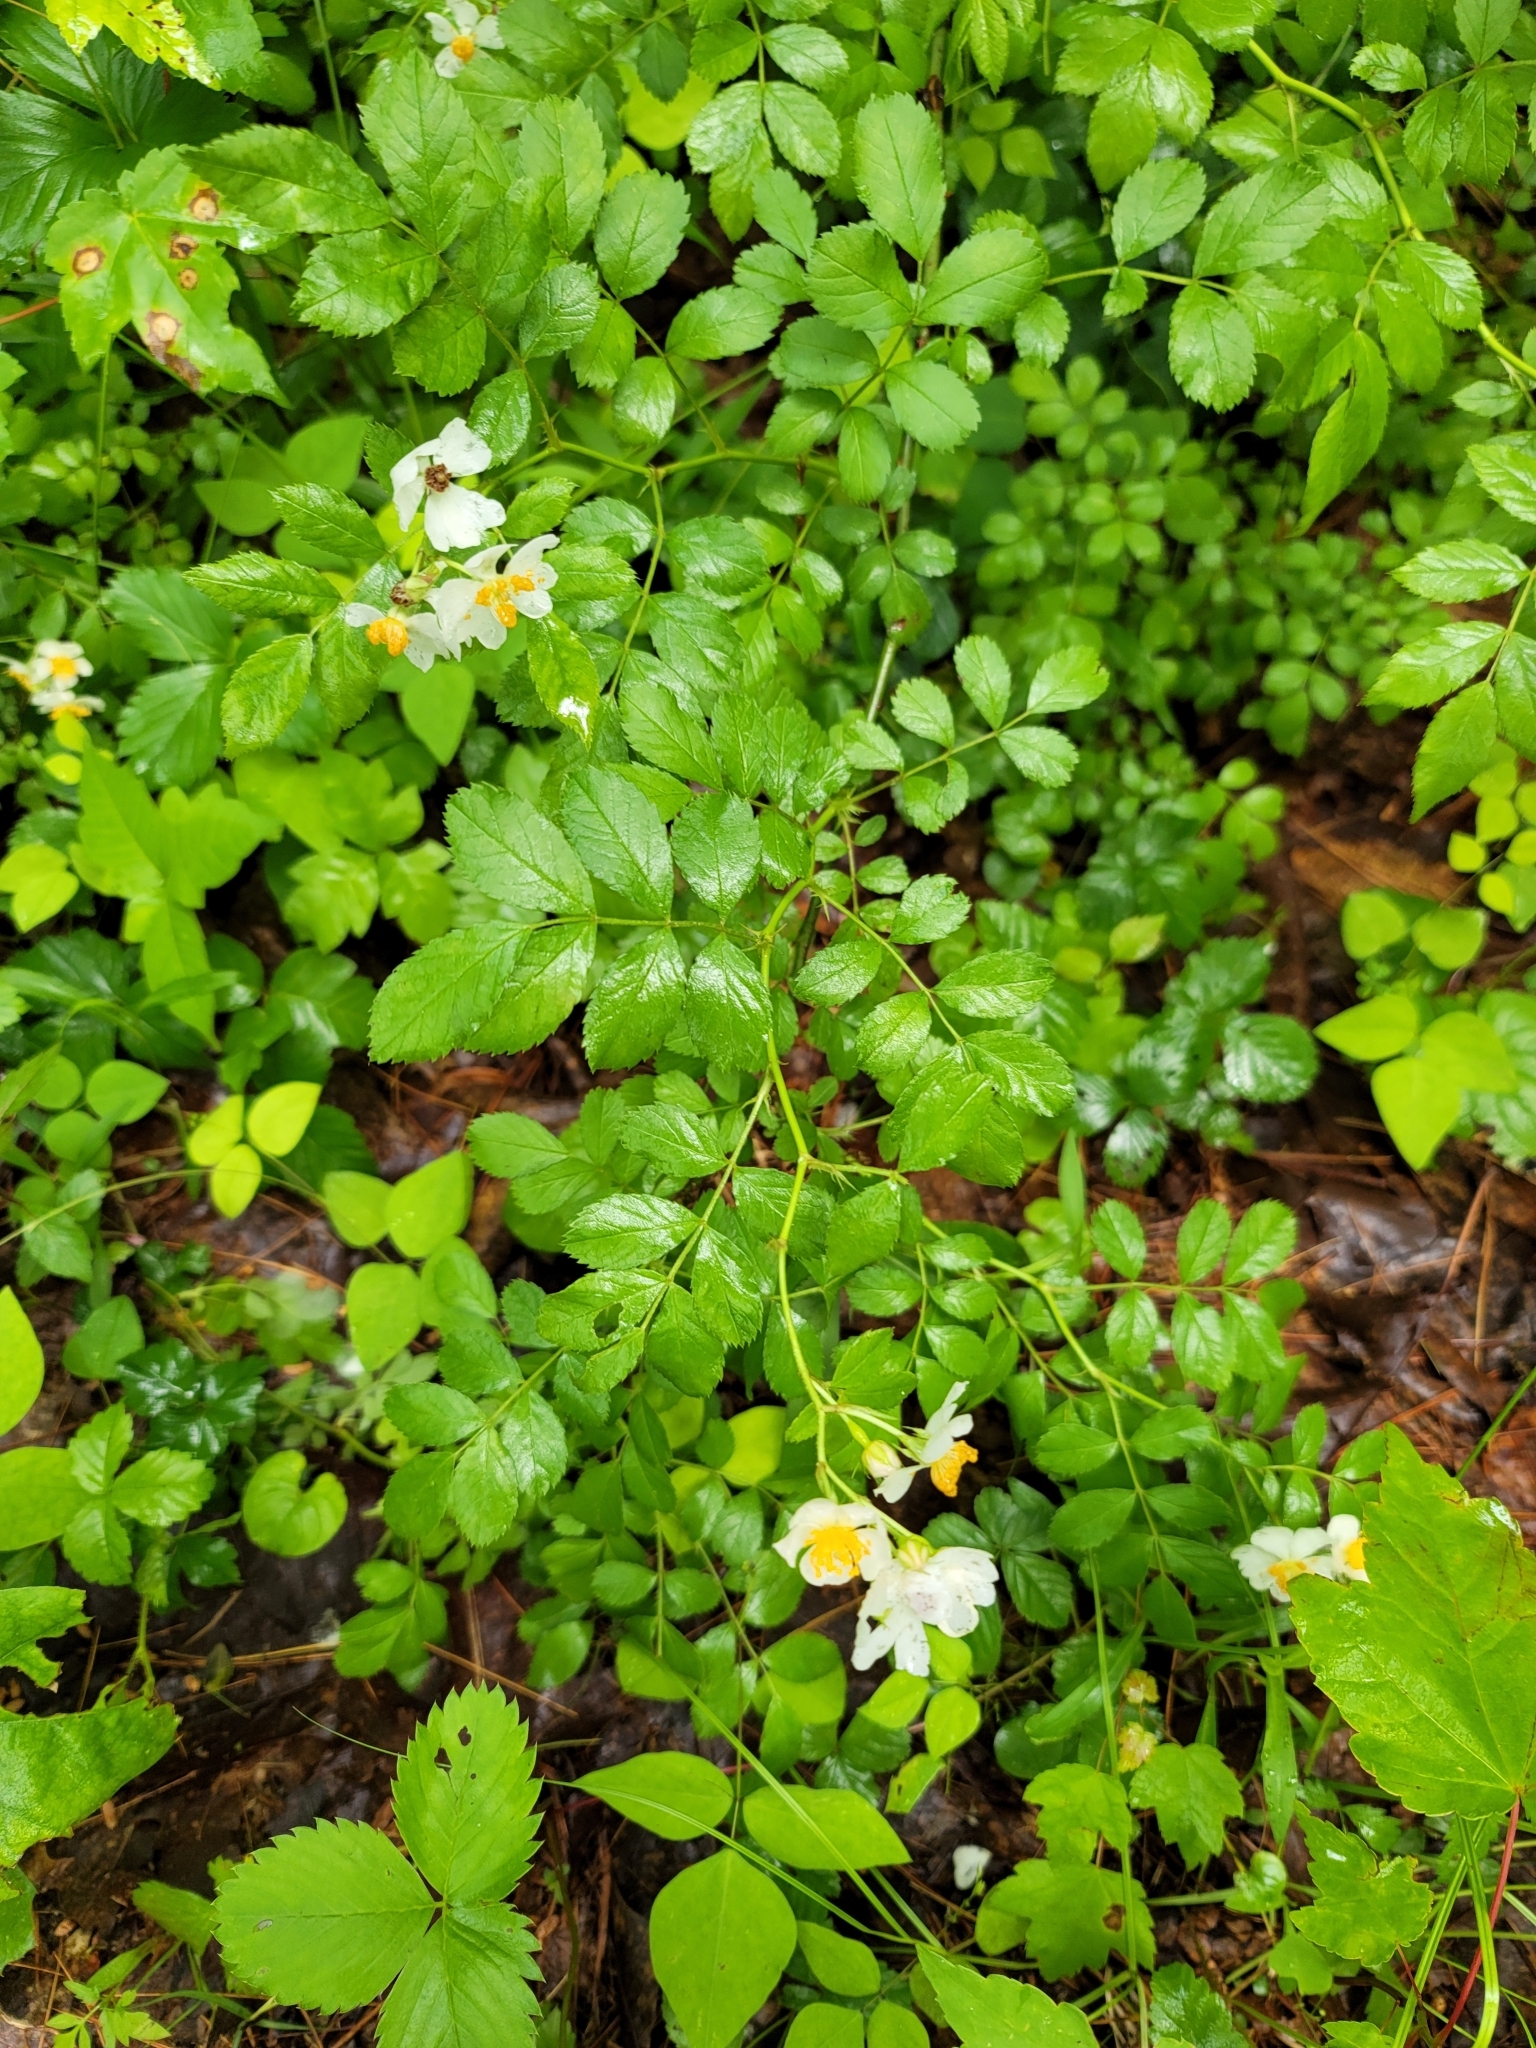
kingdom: Plantae
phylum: Tracheophyta
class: Magnoliopsida
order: Rosales
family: Rosaceae
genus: Rosa
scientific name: Rosa multiflora
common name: Multiflora rose
